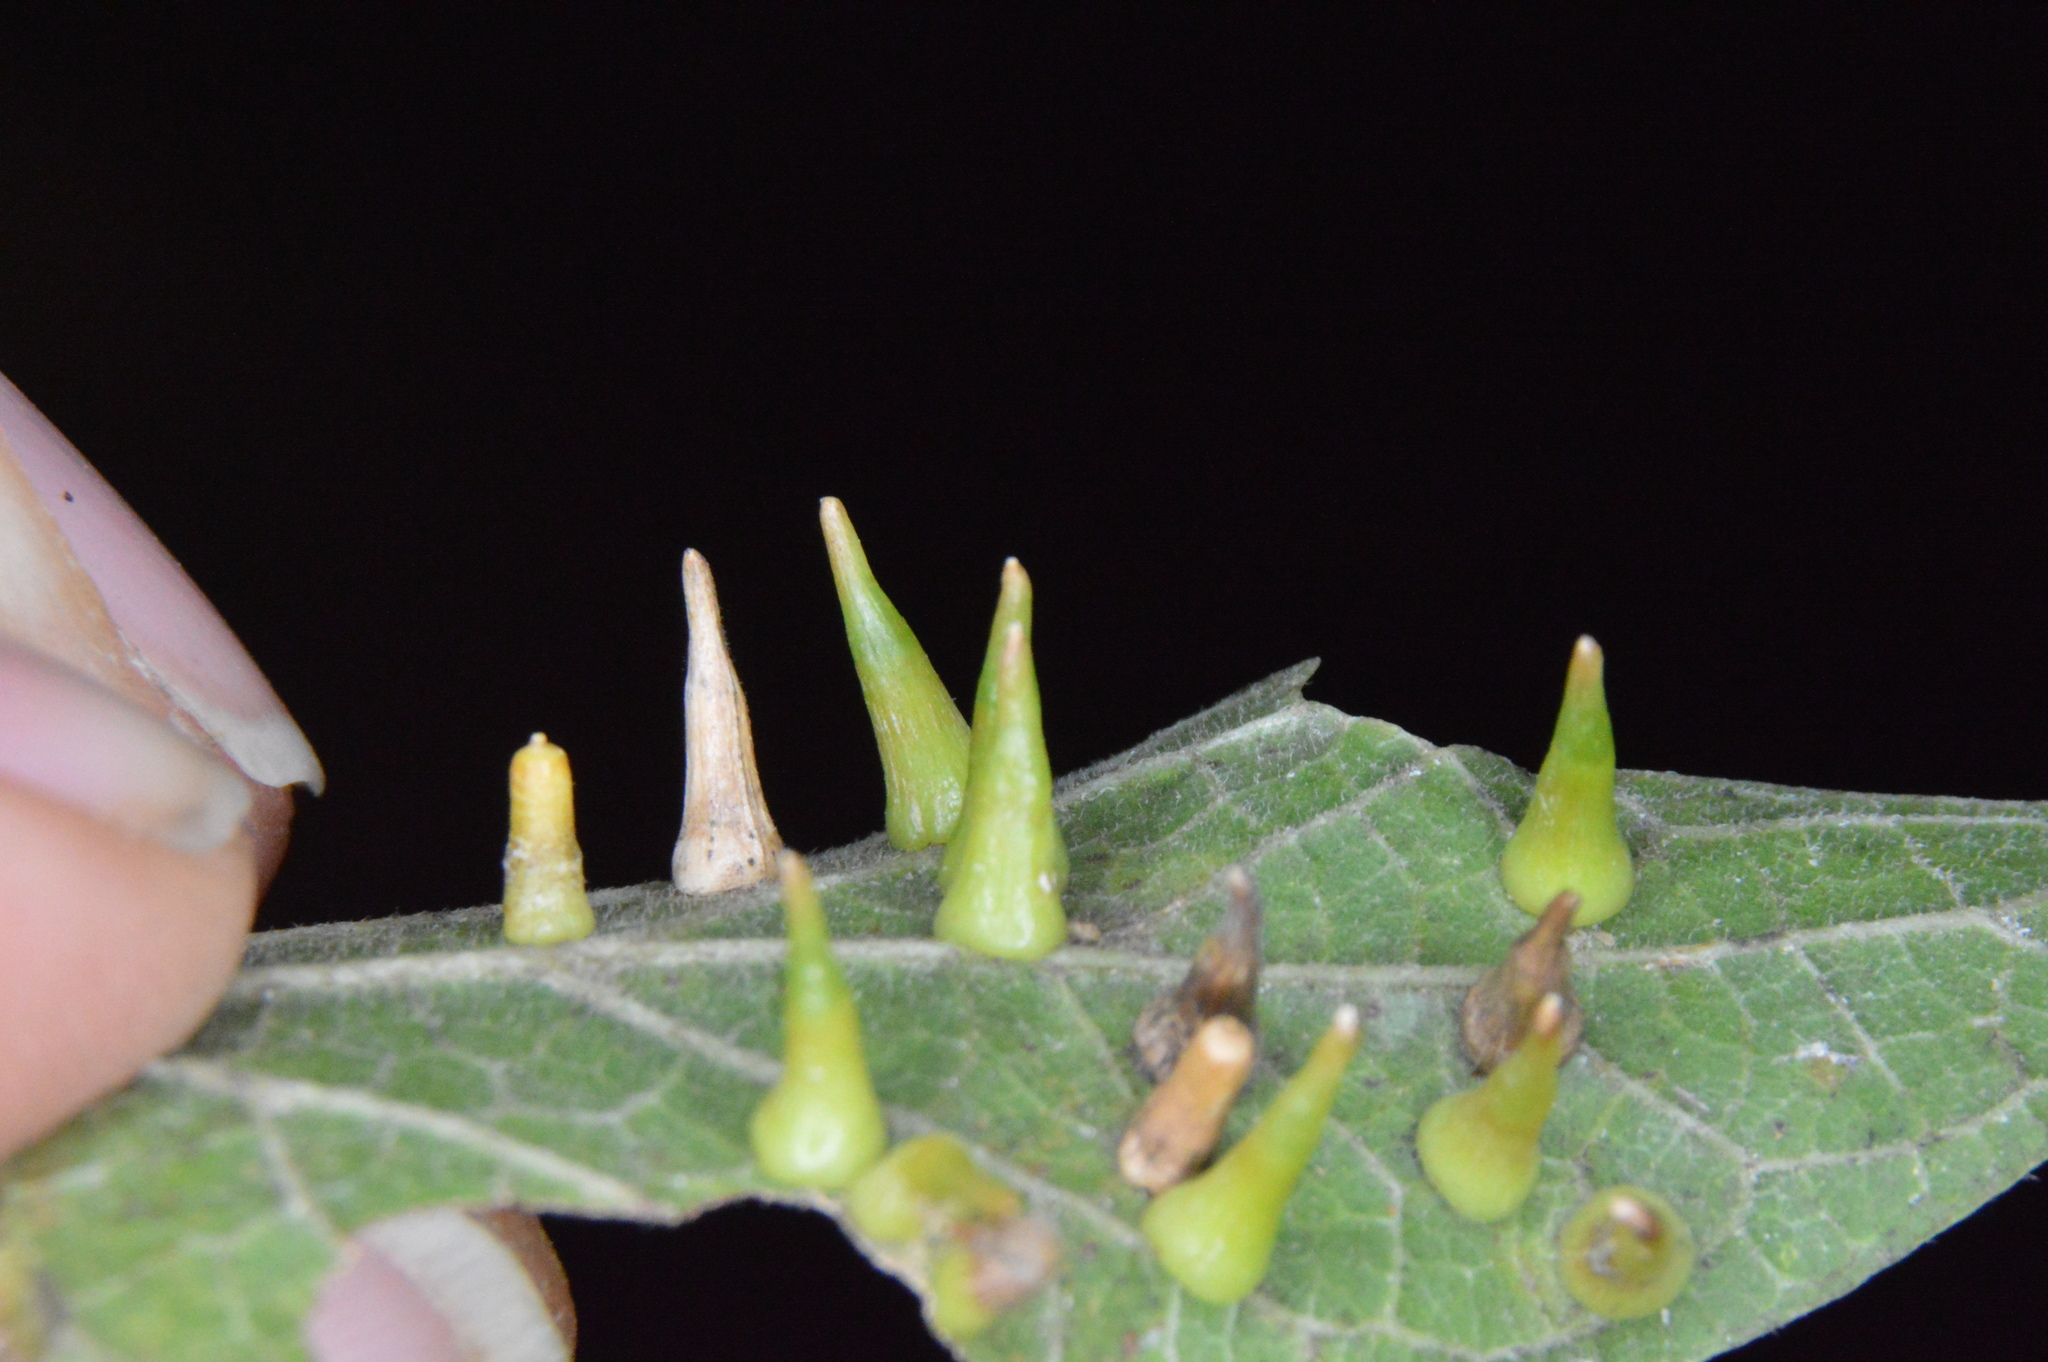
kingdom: Animalia
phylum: Arthropoda
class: Insecta
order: Diptera
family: Cecidomyiidae
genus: Celticecis
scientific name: Celticecis aciculata
